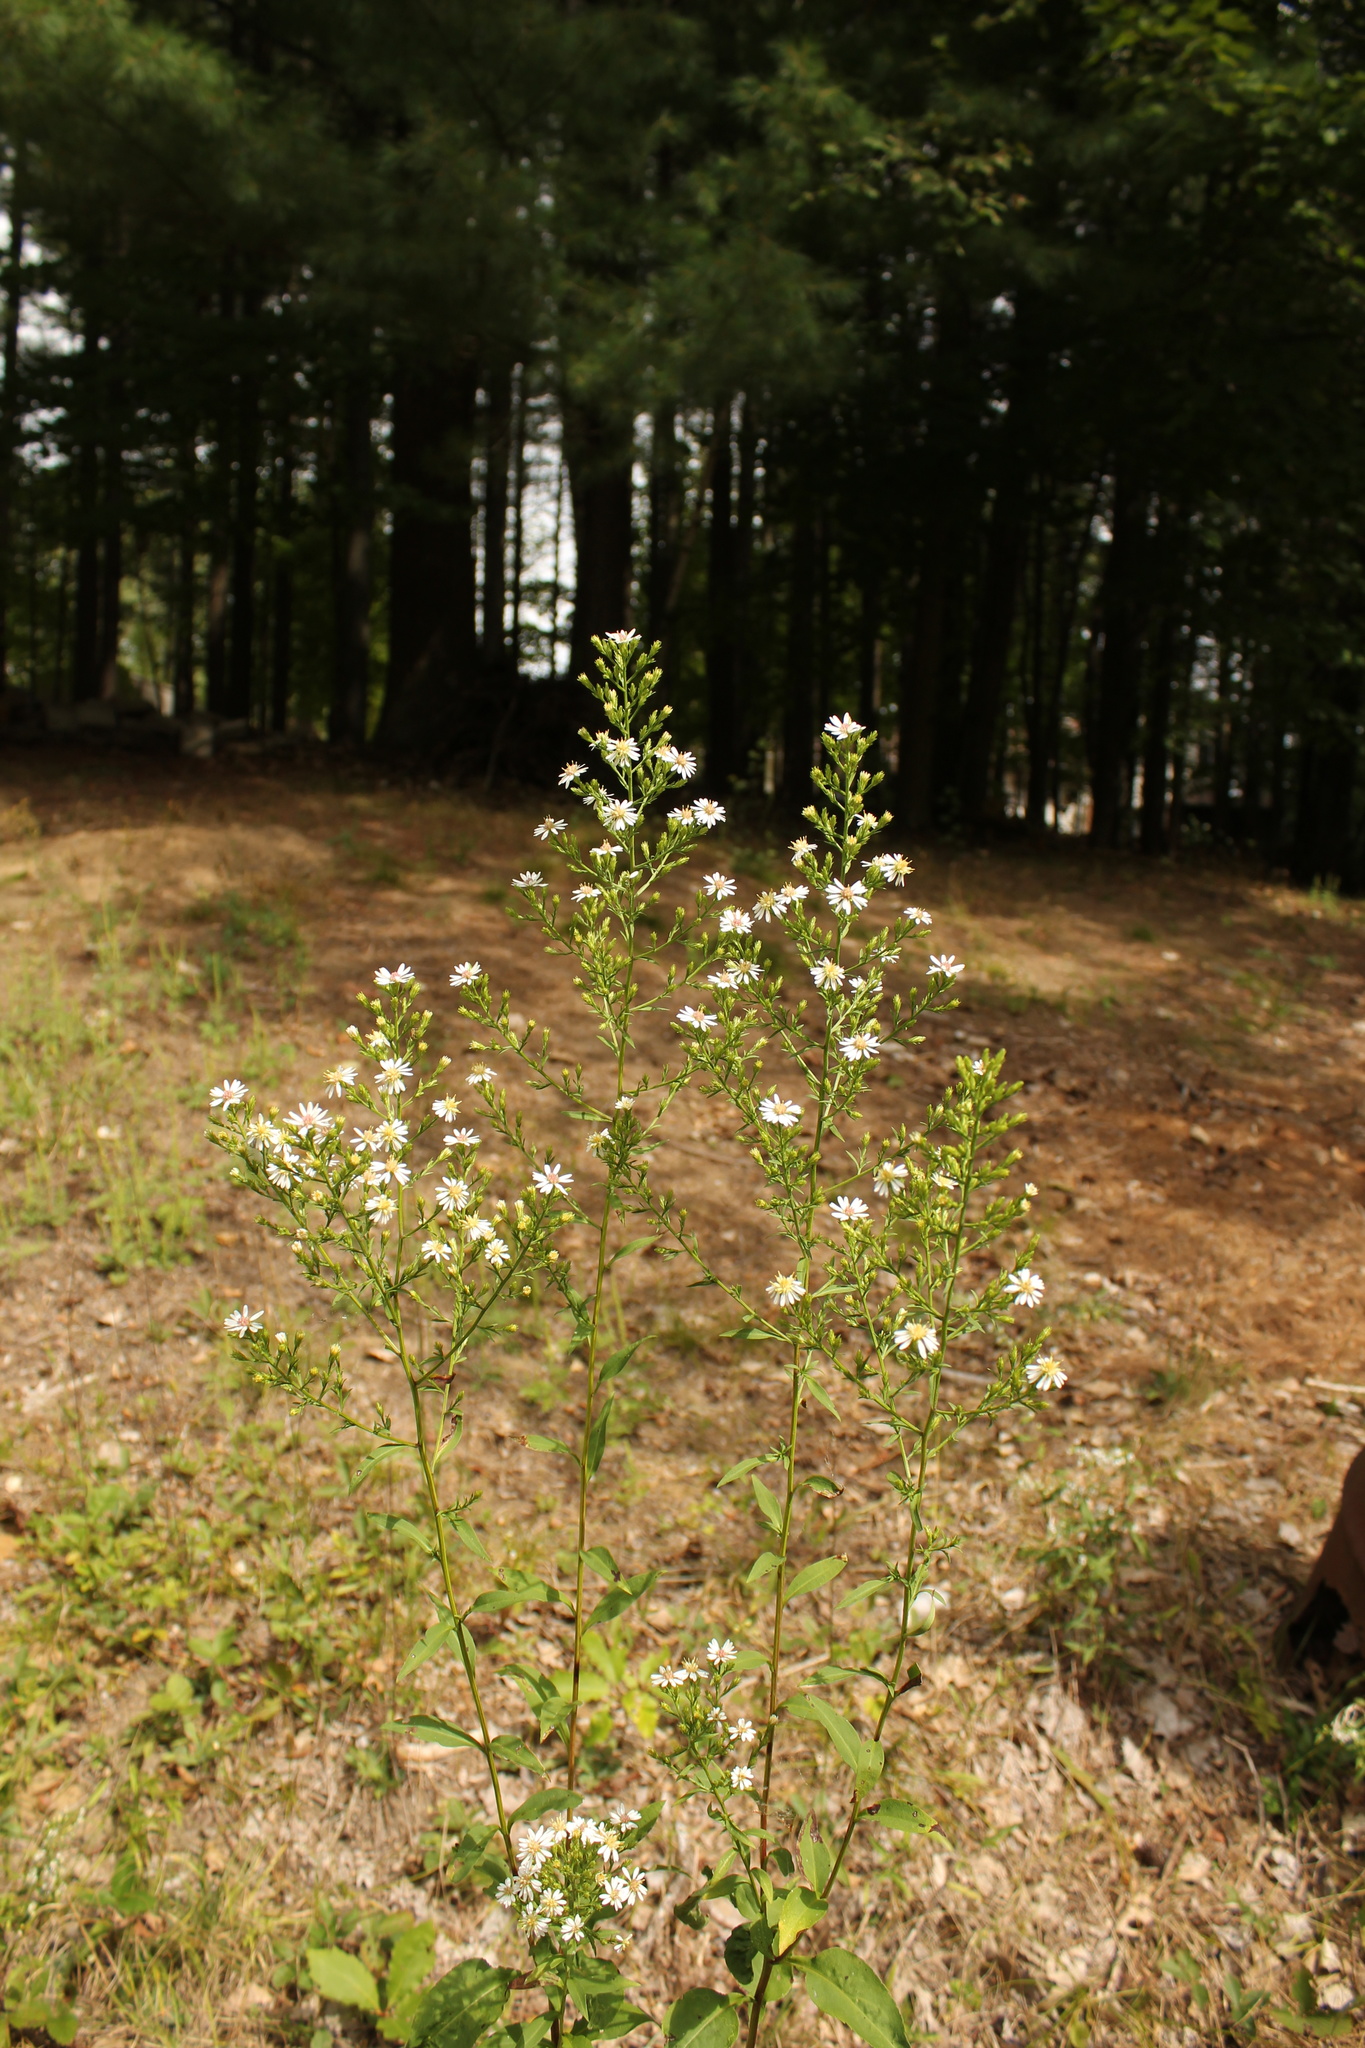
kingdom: Plantae
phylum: Tracheophyta
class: Magnoliopsida
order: Asterales
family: Asteraceae
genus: Symphyotrichum
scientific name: Symphyotrichum urophyllum
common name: Arrow-leaved aster
